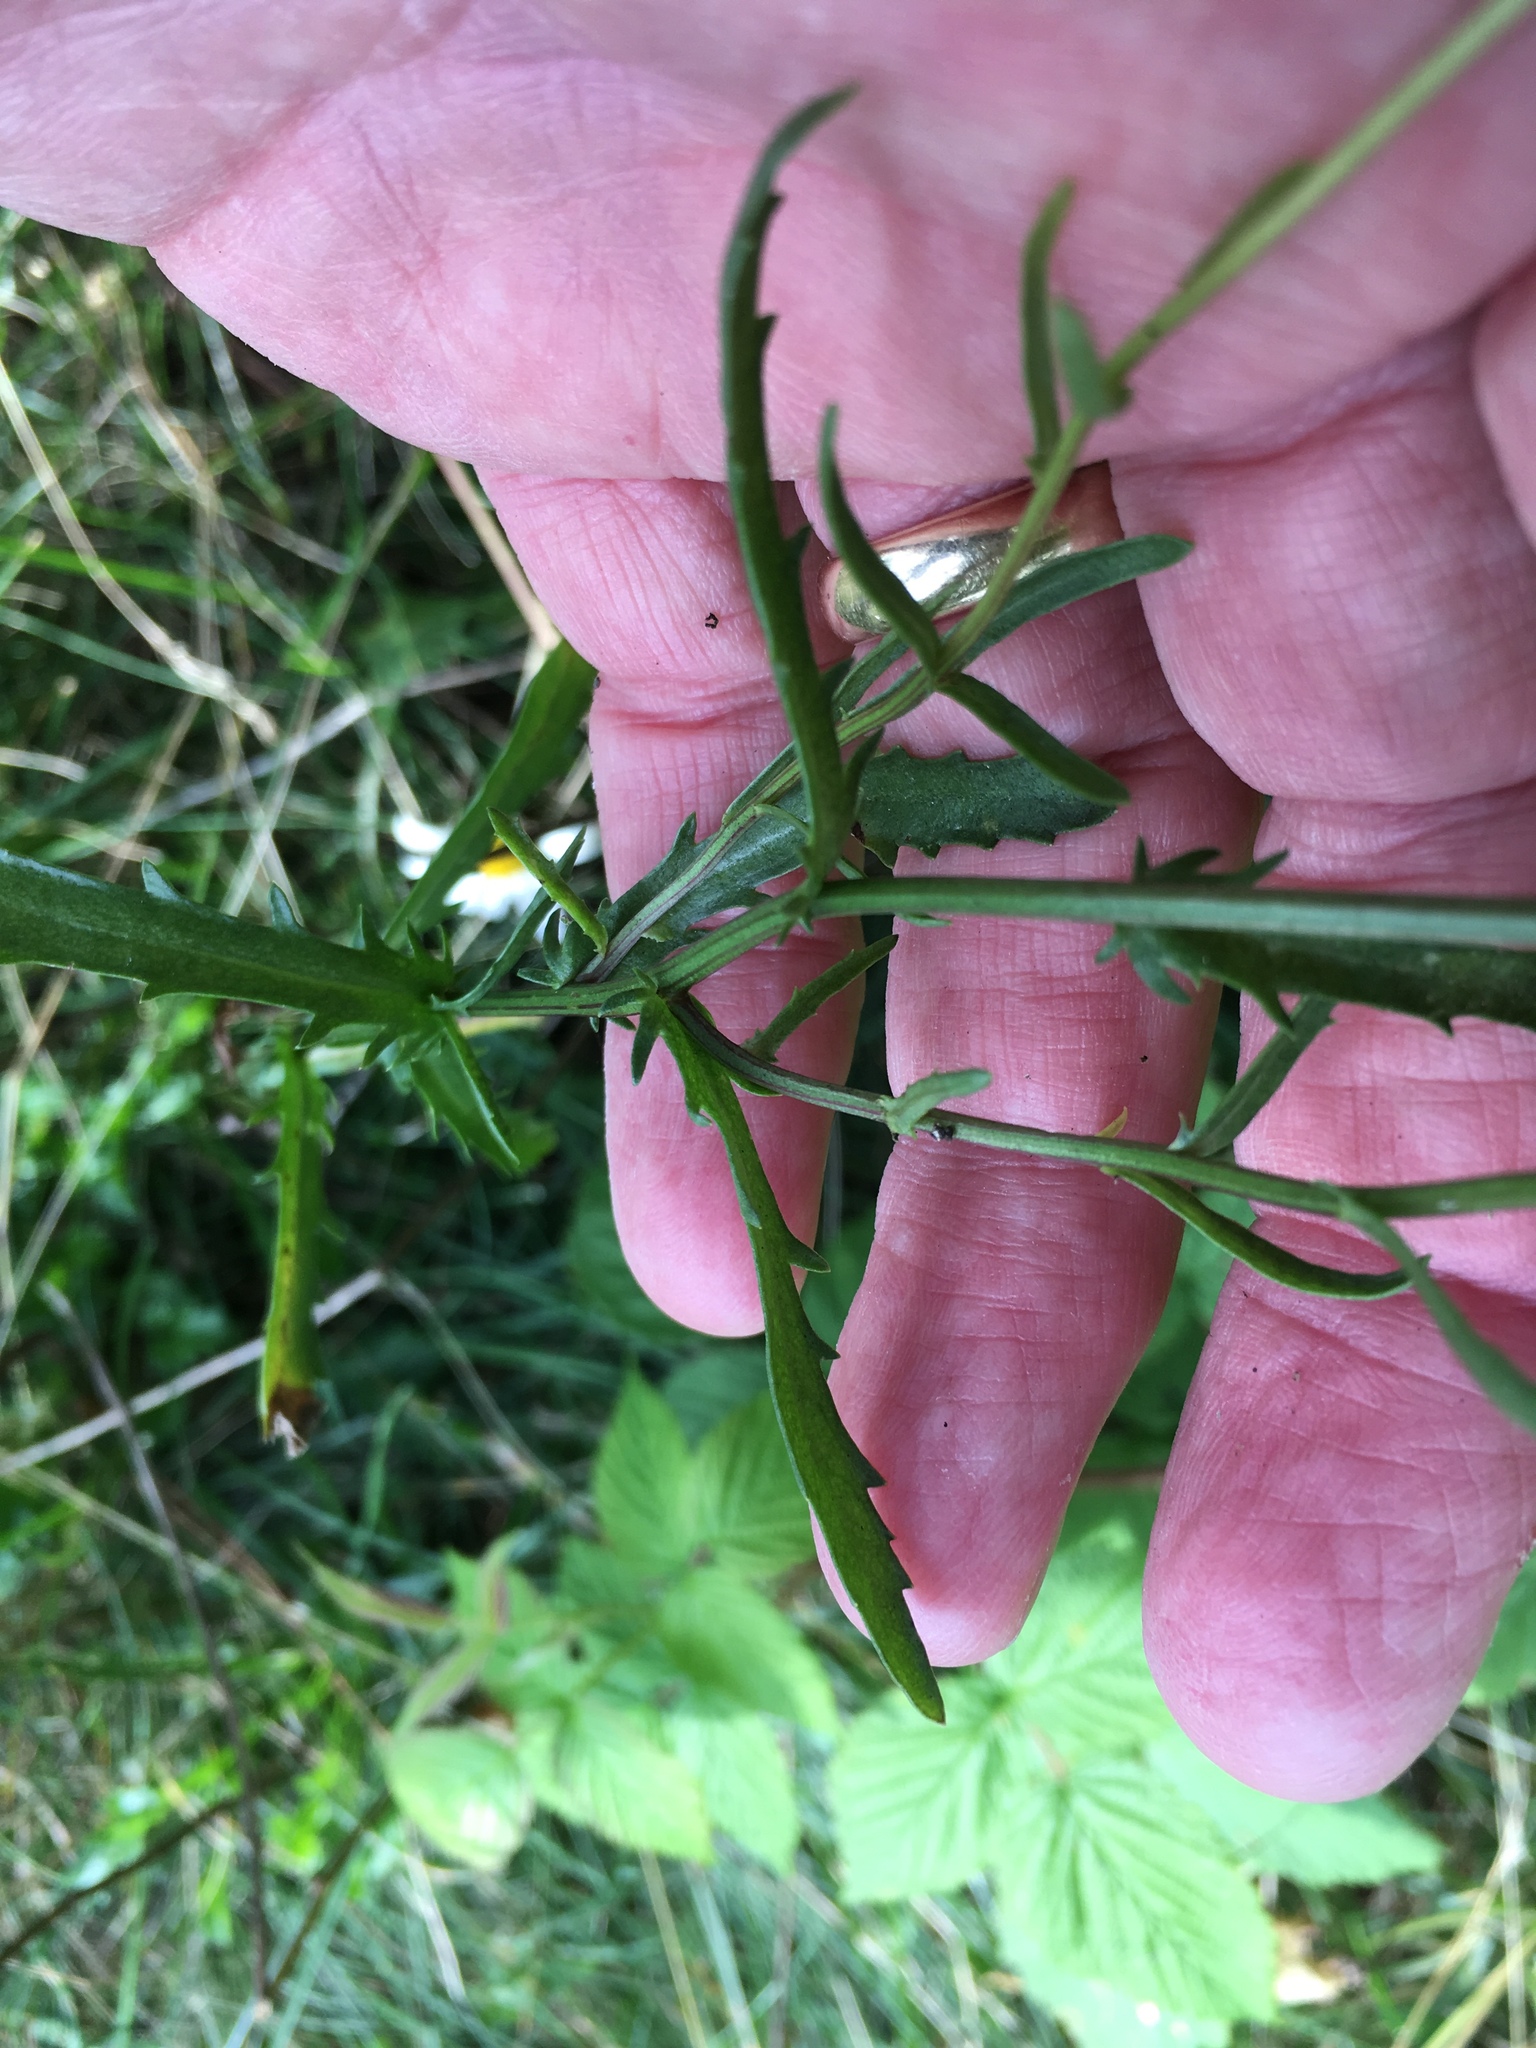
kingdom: Plantae
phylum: Tracheophyta
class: Magnoliopsida
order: Asterales
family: Asteraceae
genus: Leucanthemum
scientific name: Leucanthemum vulgare
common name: Oxeye daisy
